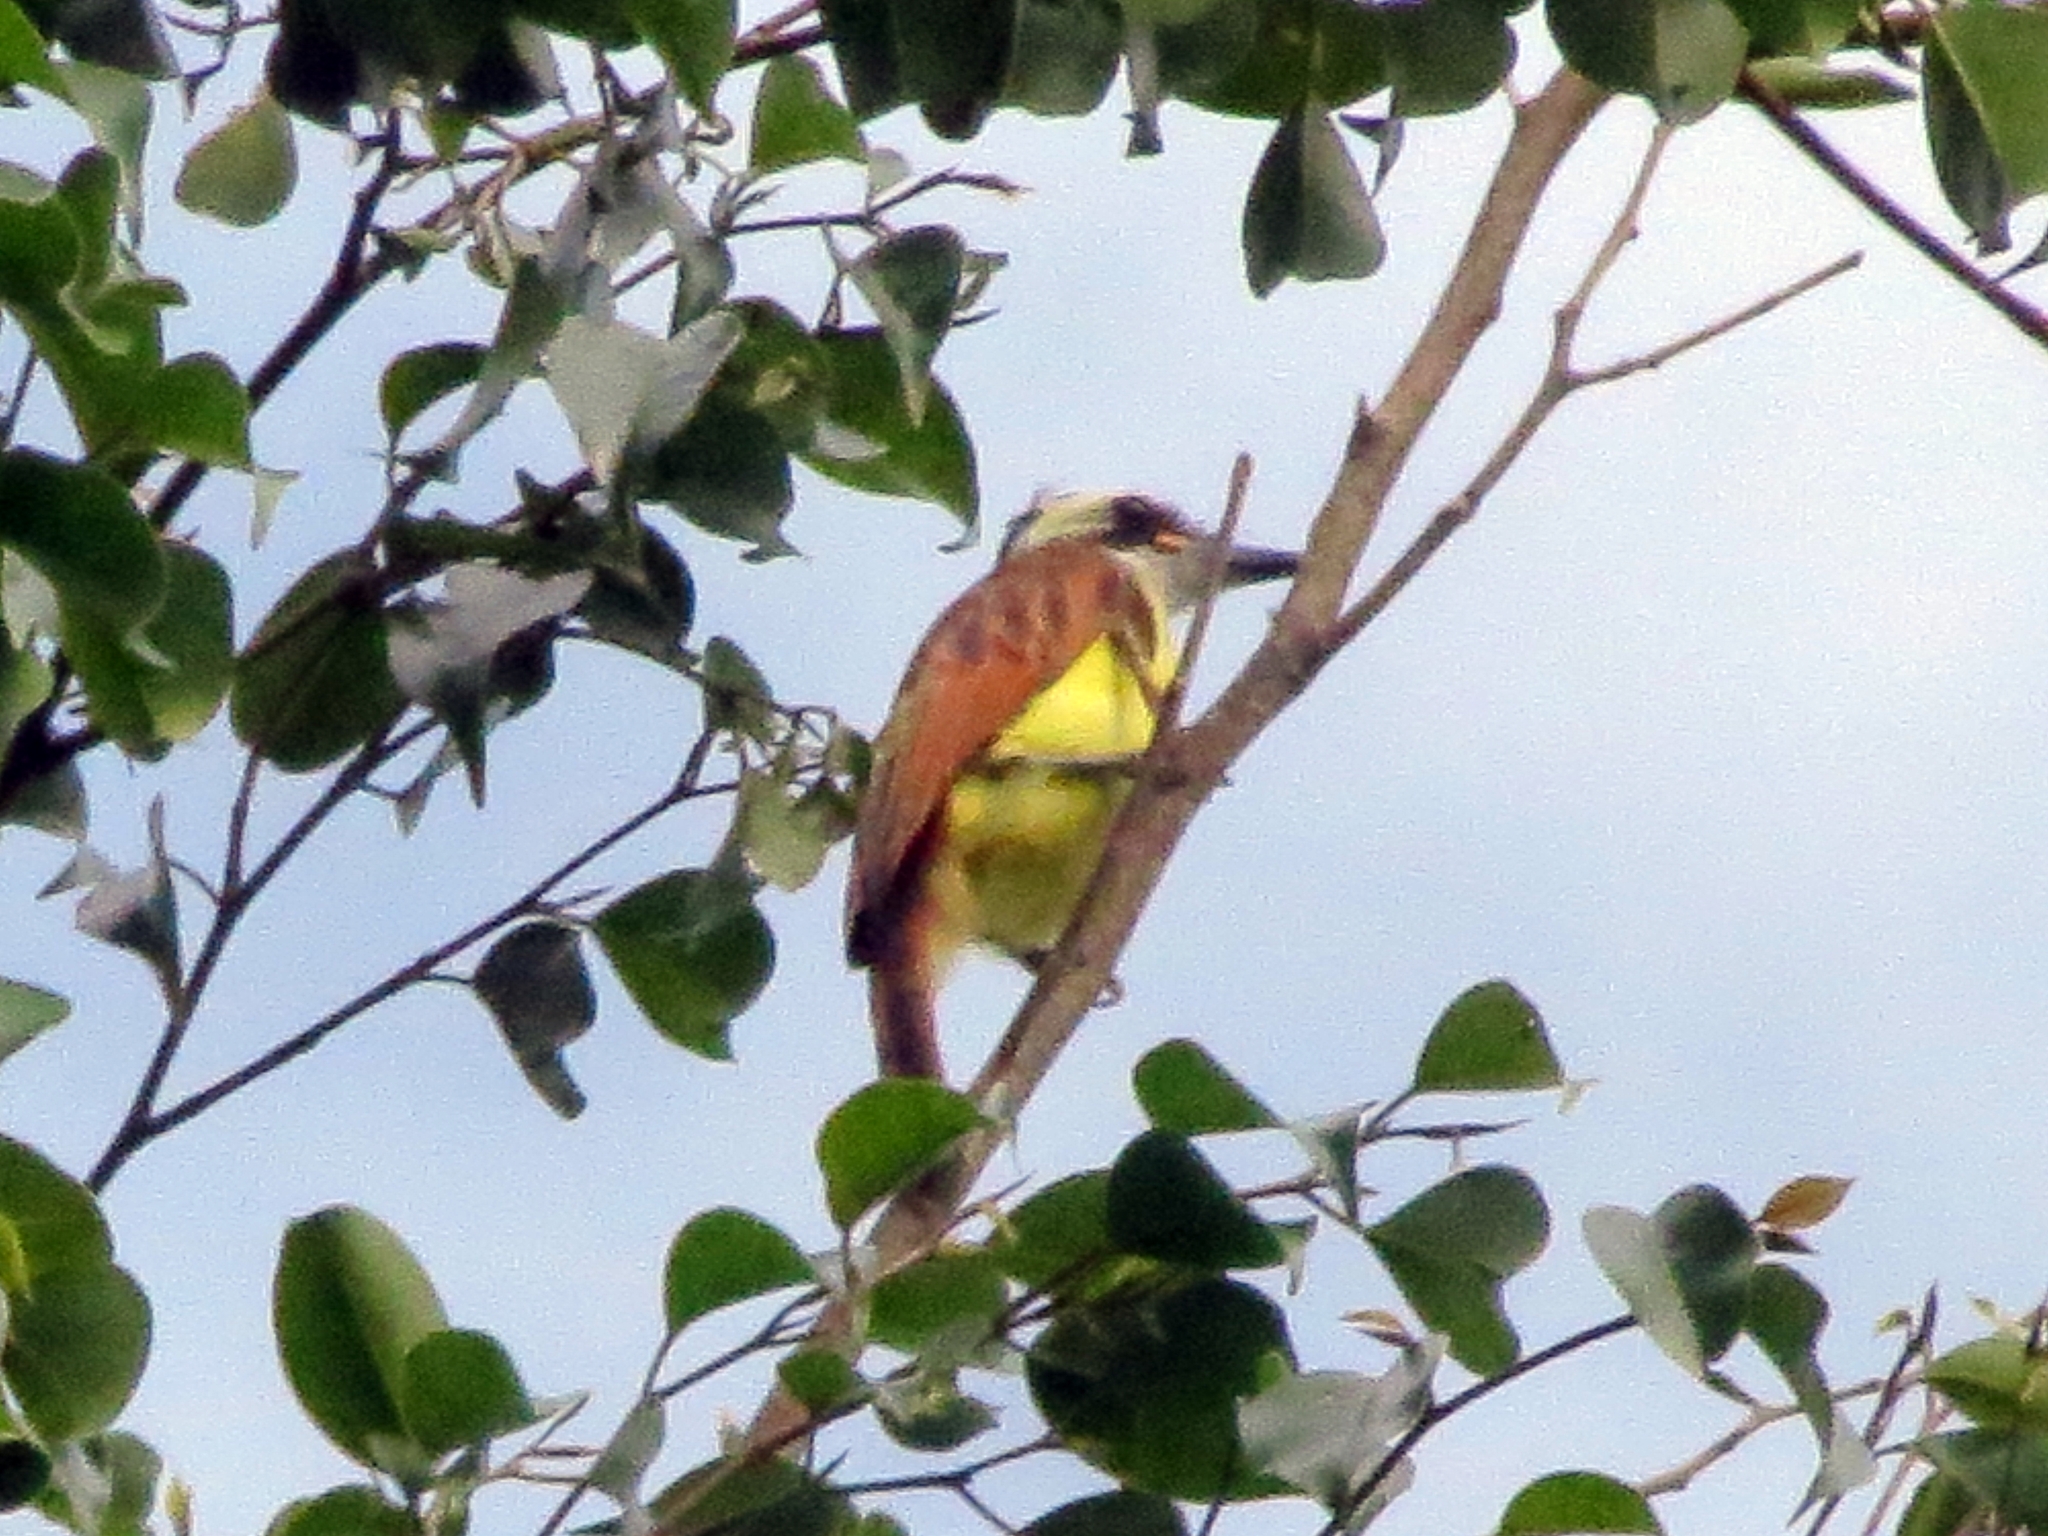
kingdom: Animalia
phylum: Chordata
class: Aves
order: Passeriformes
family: Tyrannidae
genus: Megarynchus
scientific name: Megarynchus pitangua
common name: Boat-billed flycatcher
